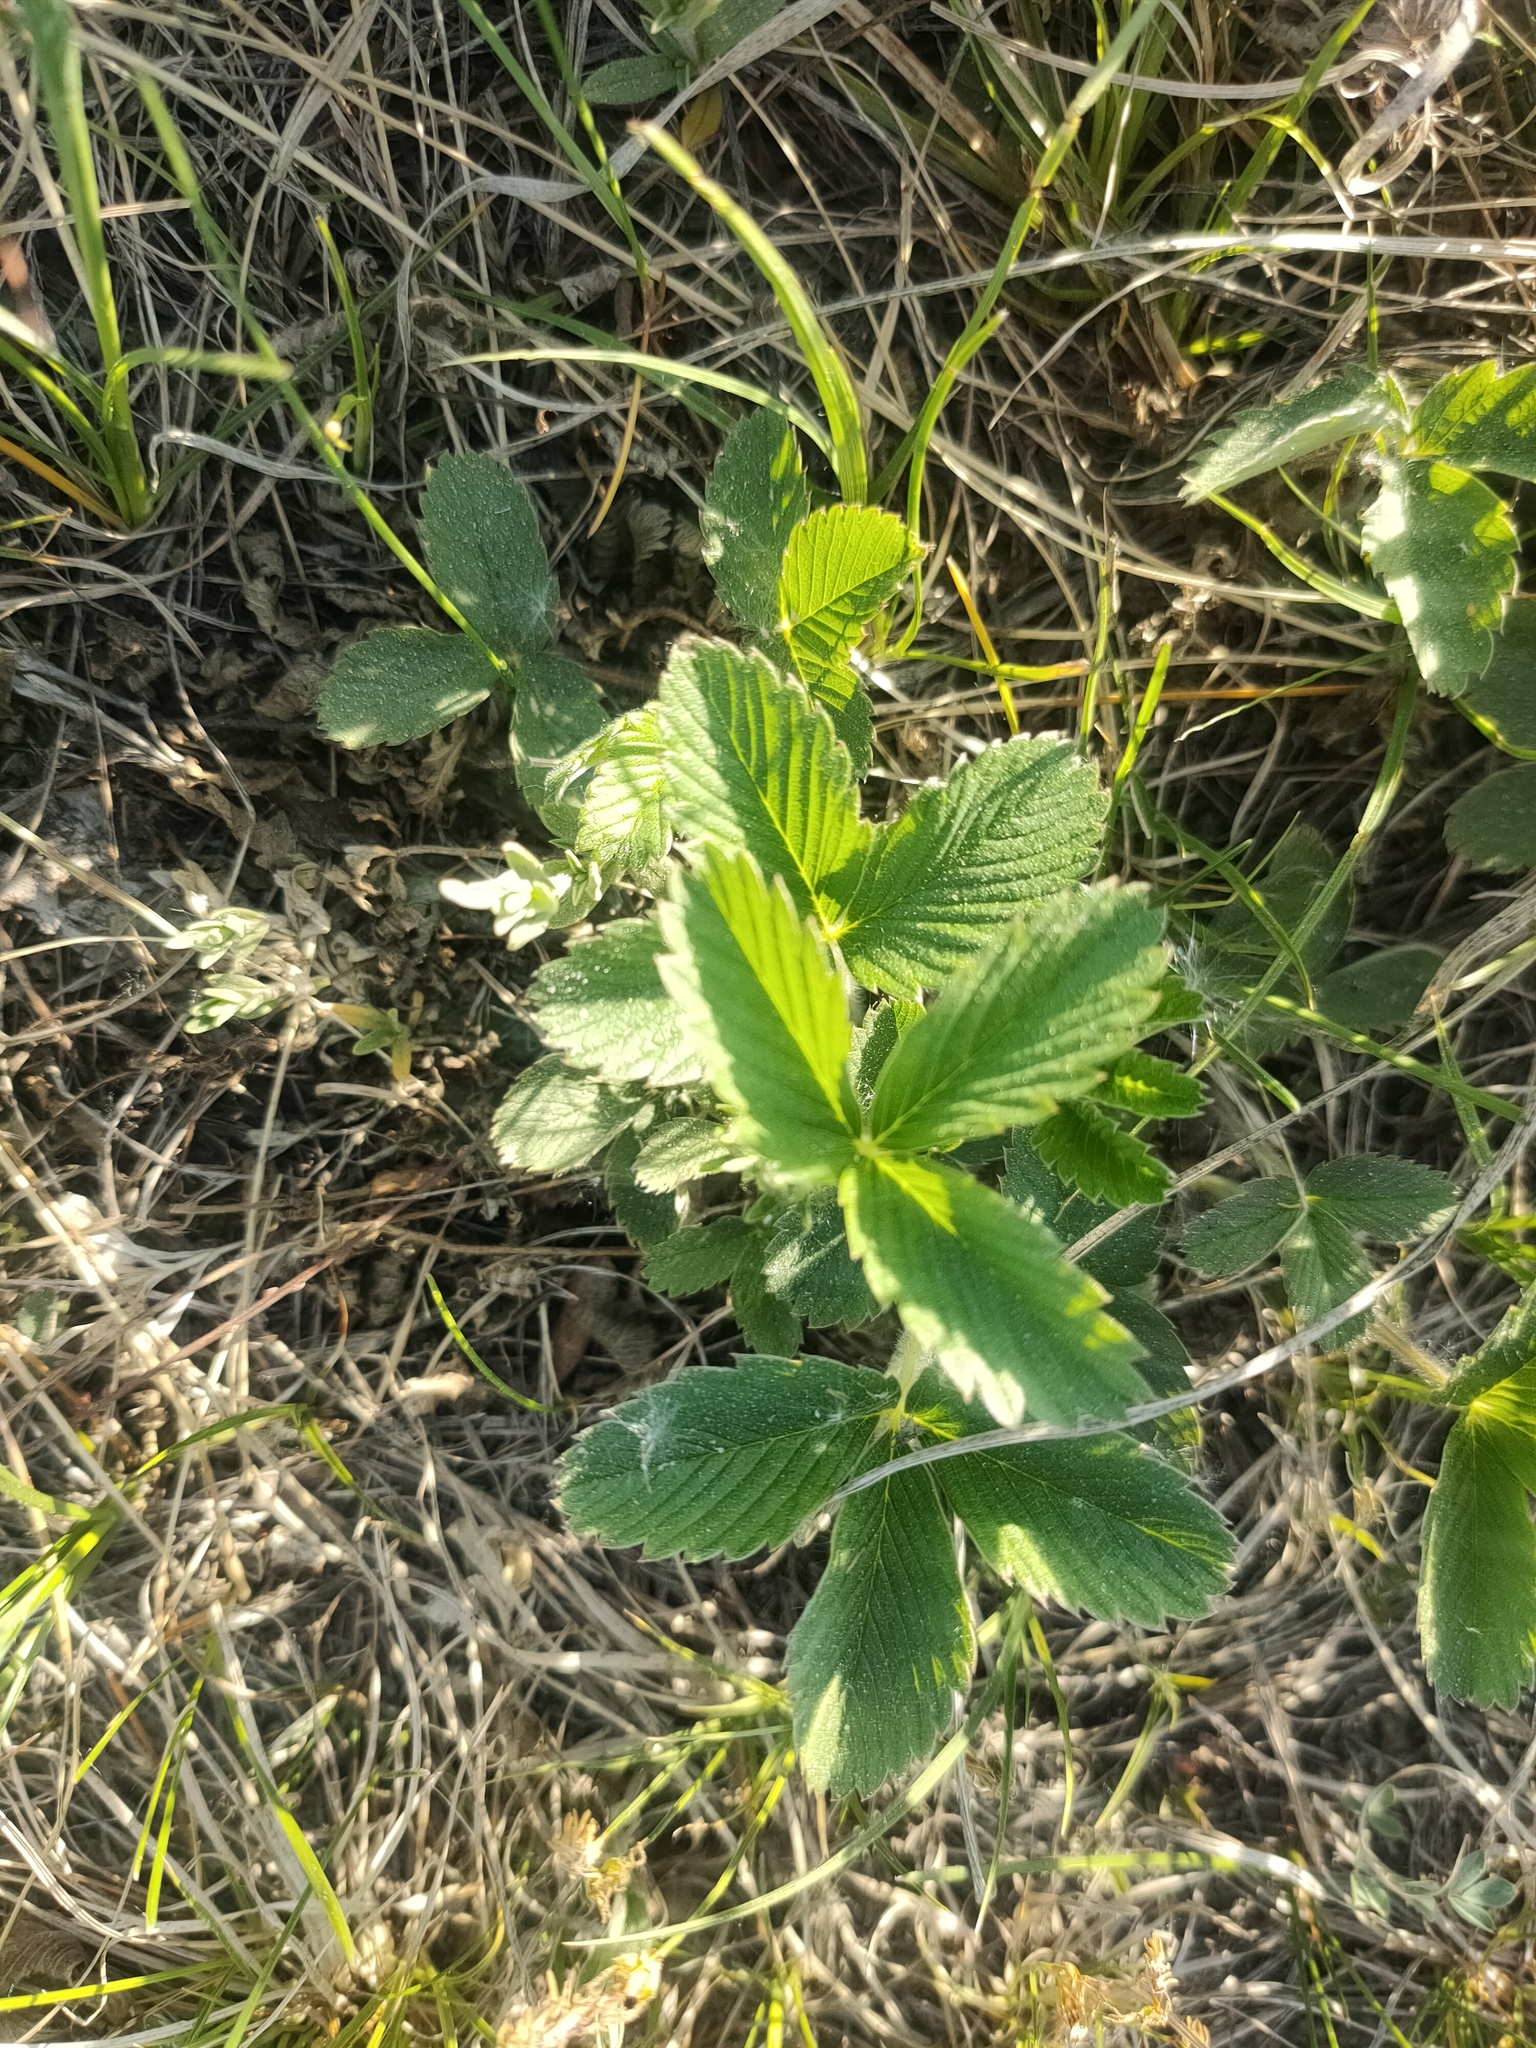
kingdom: Plantae
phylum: Tracheophyta
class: Magnoliopsida
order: Rosales
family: Rosaceae
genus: Fragaria
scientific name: Fragaria viridis
